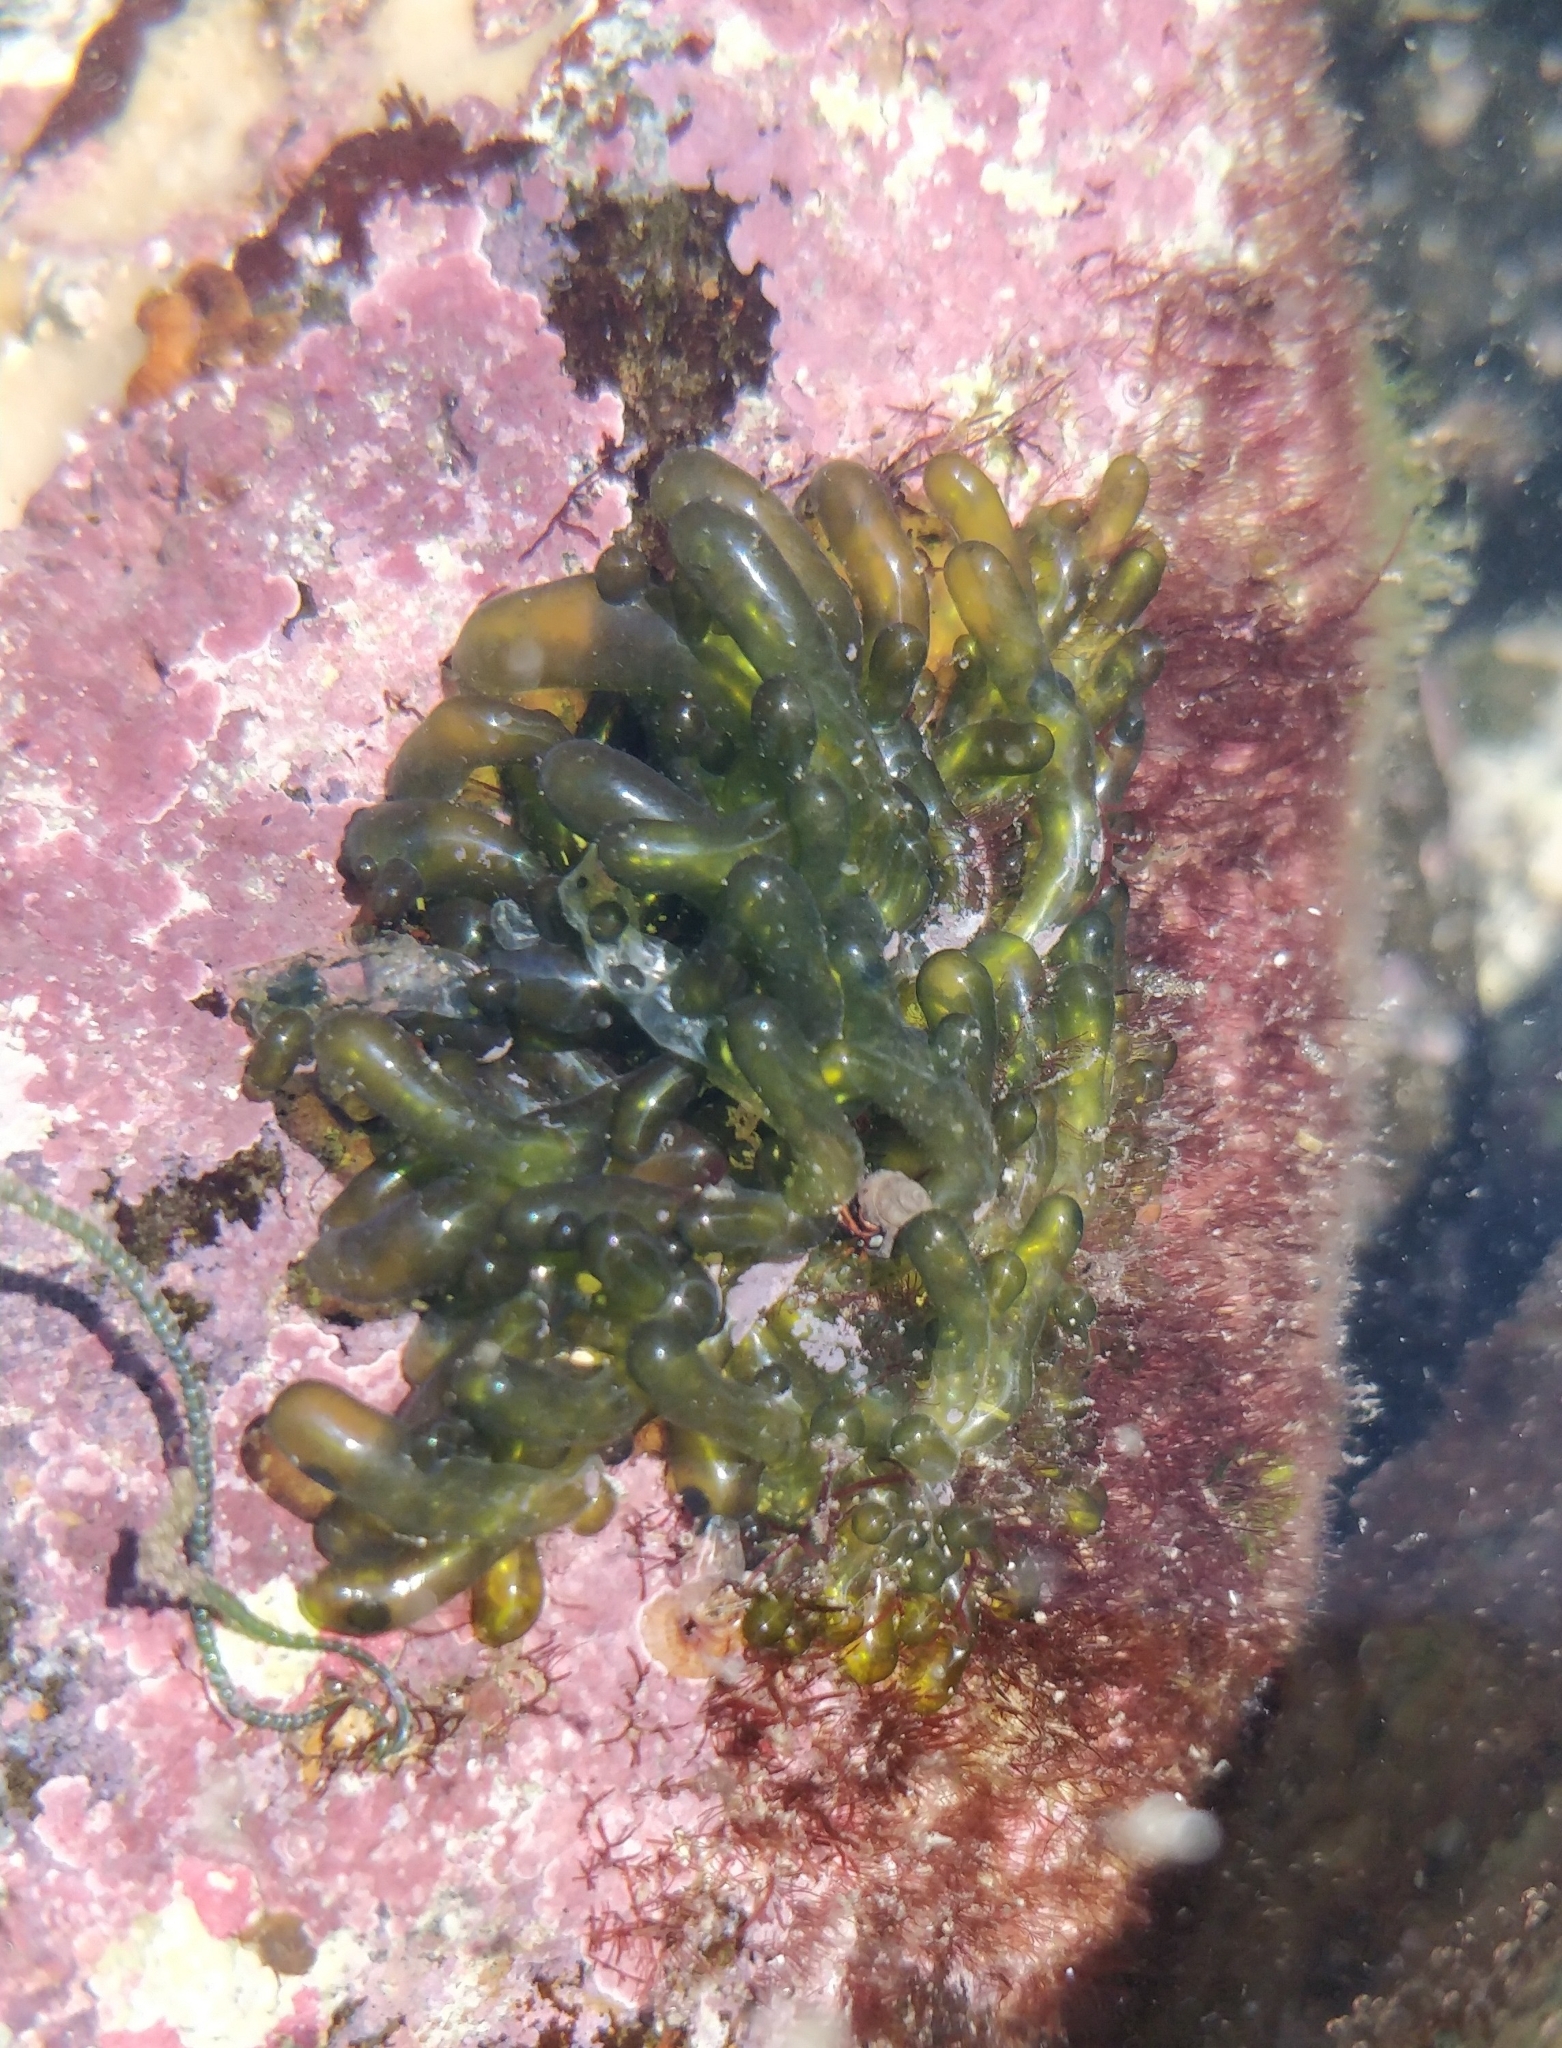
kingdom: Plantae
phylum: Chlorophyta
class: Ulvophyceae
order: Siphonocladales
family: Valoniaceae
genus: Valonia
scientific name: Valonia utricularis
